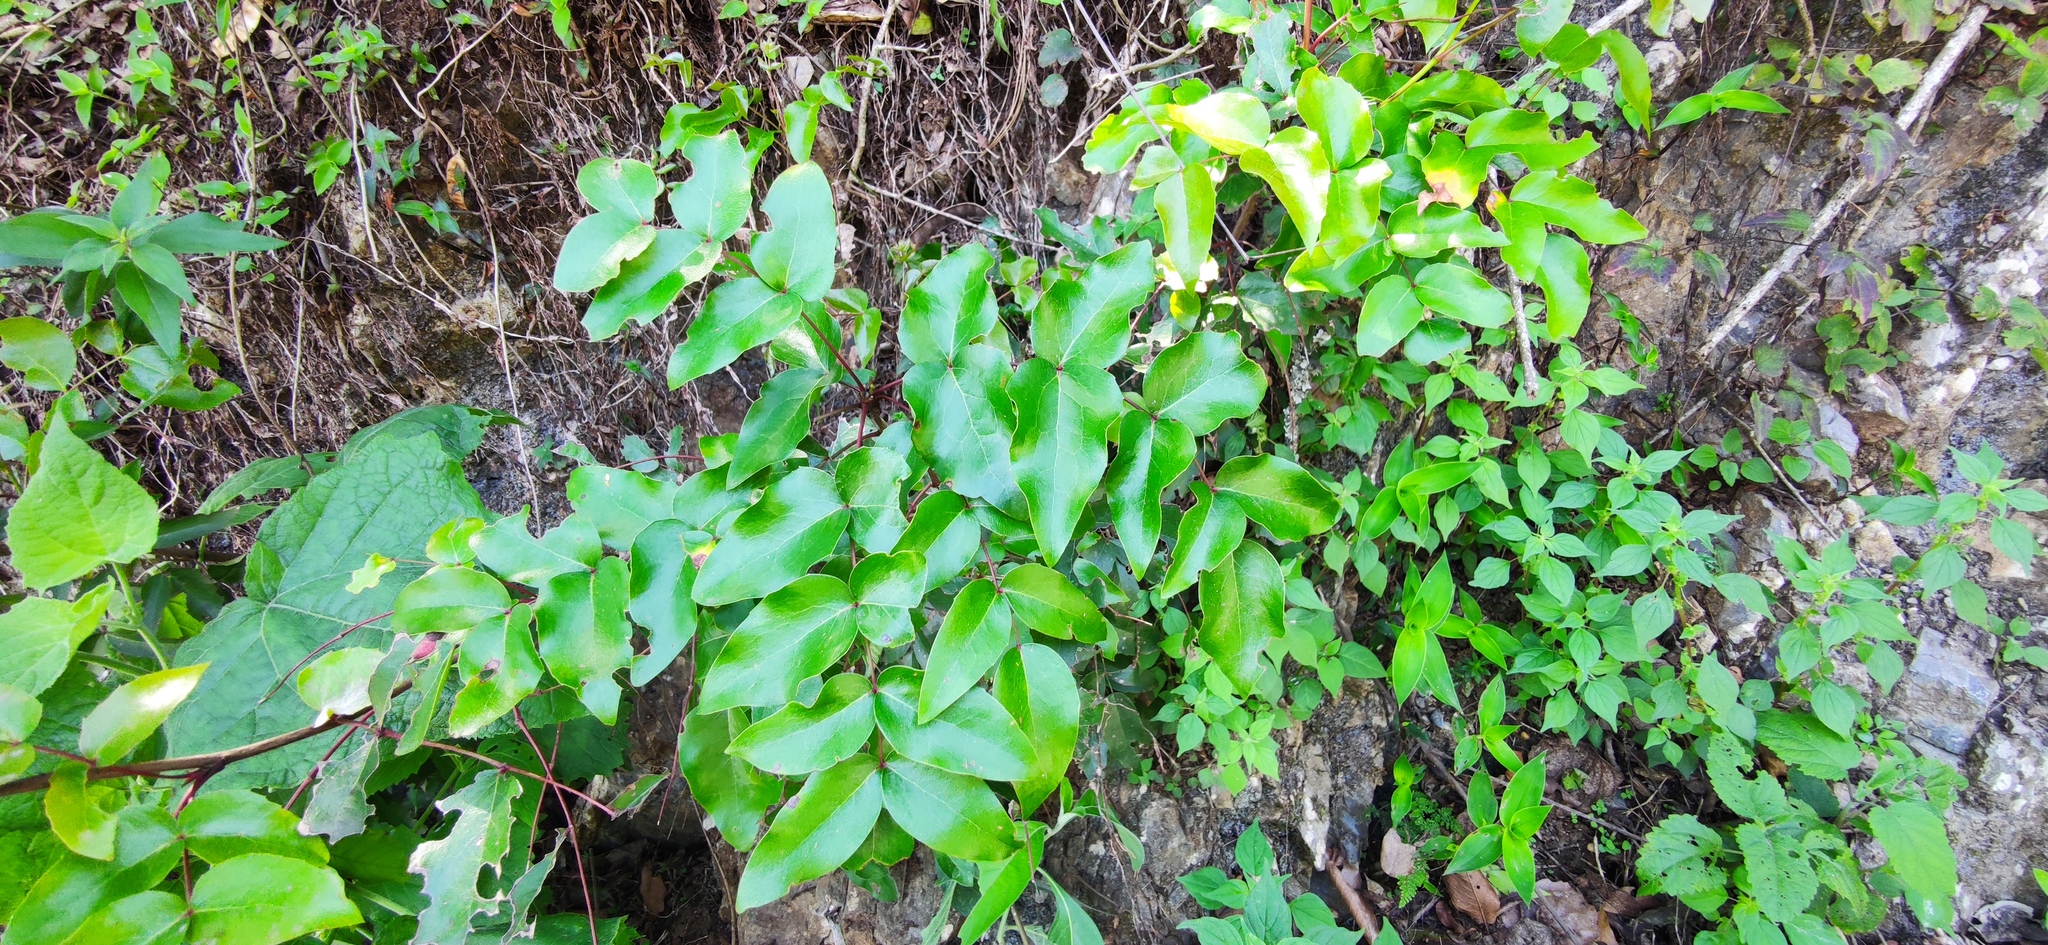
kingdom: Plantae
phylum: Tracheophyta
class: Magnoliopsida
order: Ranunculales
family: Berberidaceae
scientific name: Berberidaceae
